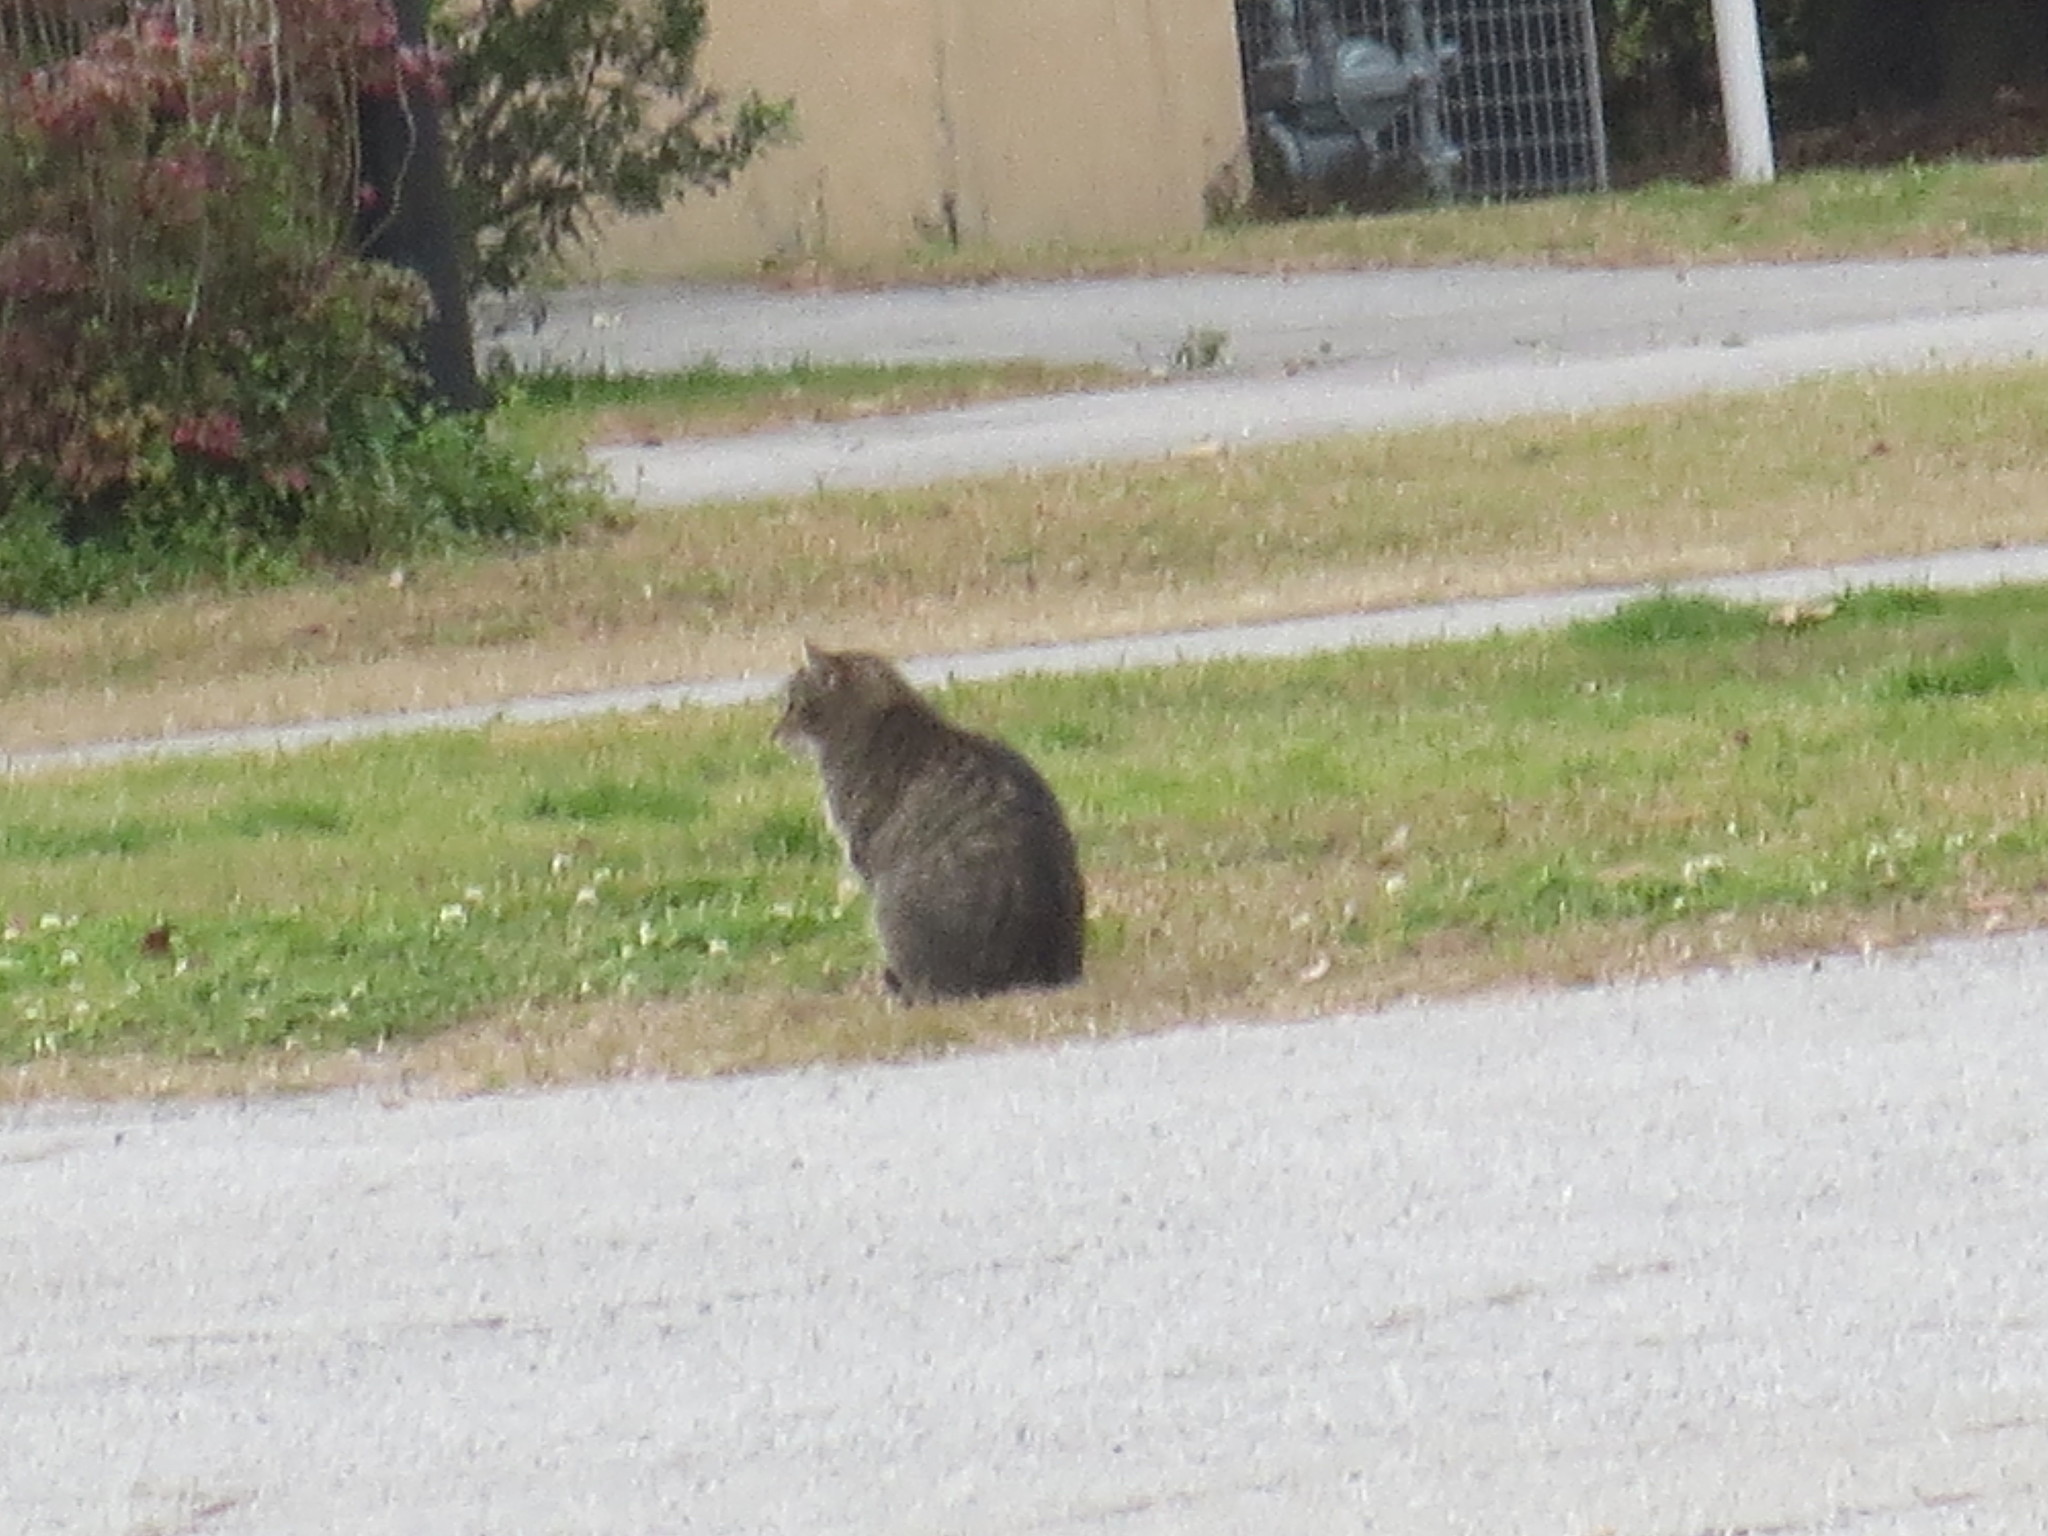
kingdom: Animalia
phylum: Chordata
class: Mammalia
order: Carnivora
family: Felidae
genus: Felis
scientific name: Felis catus
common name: Domestic cat
